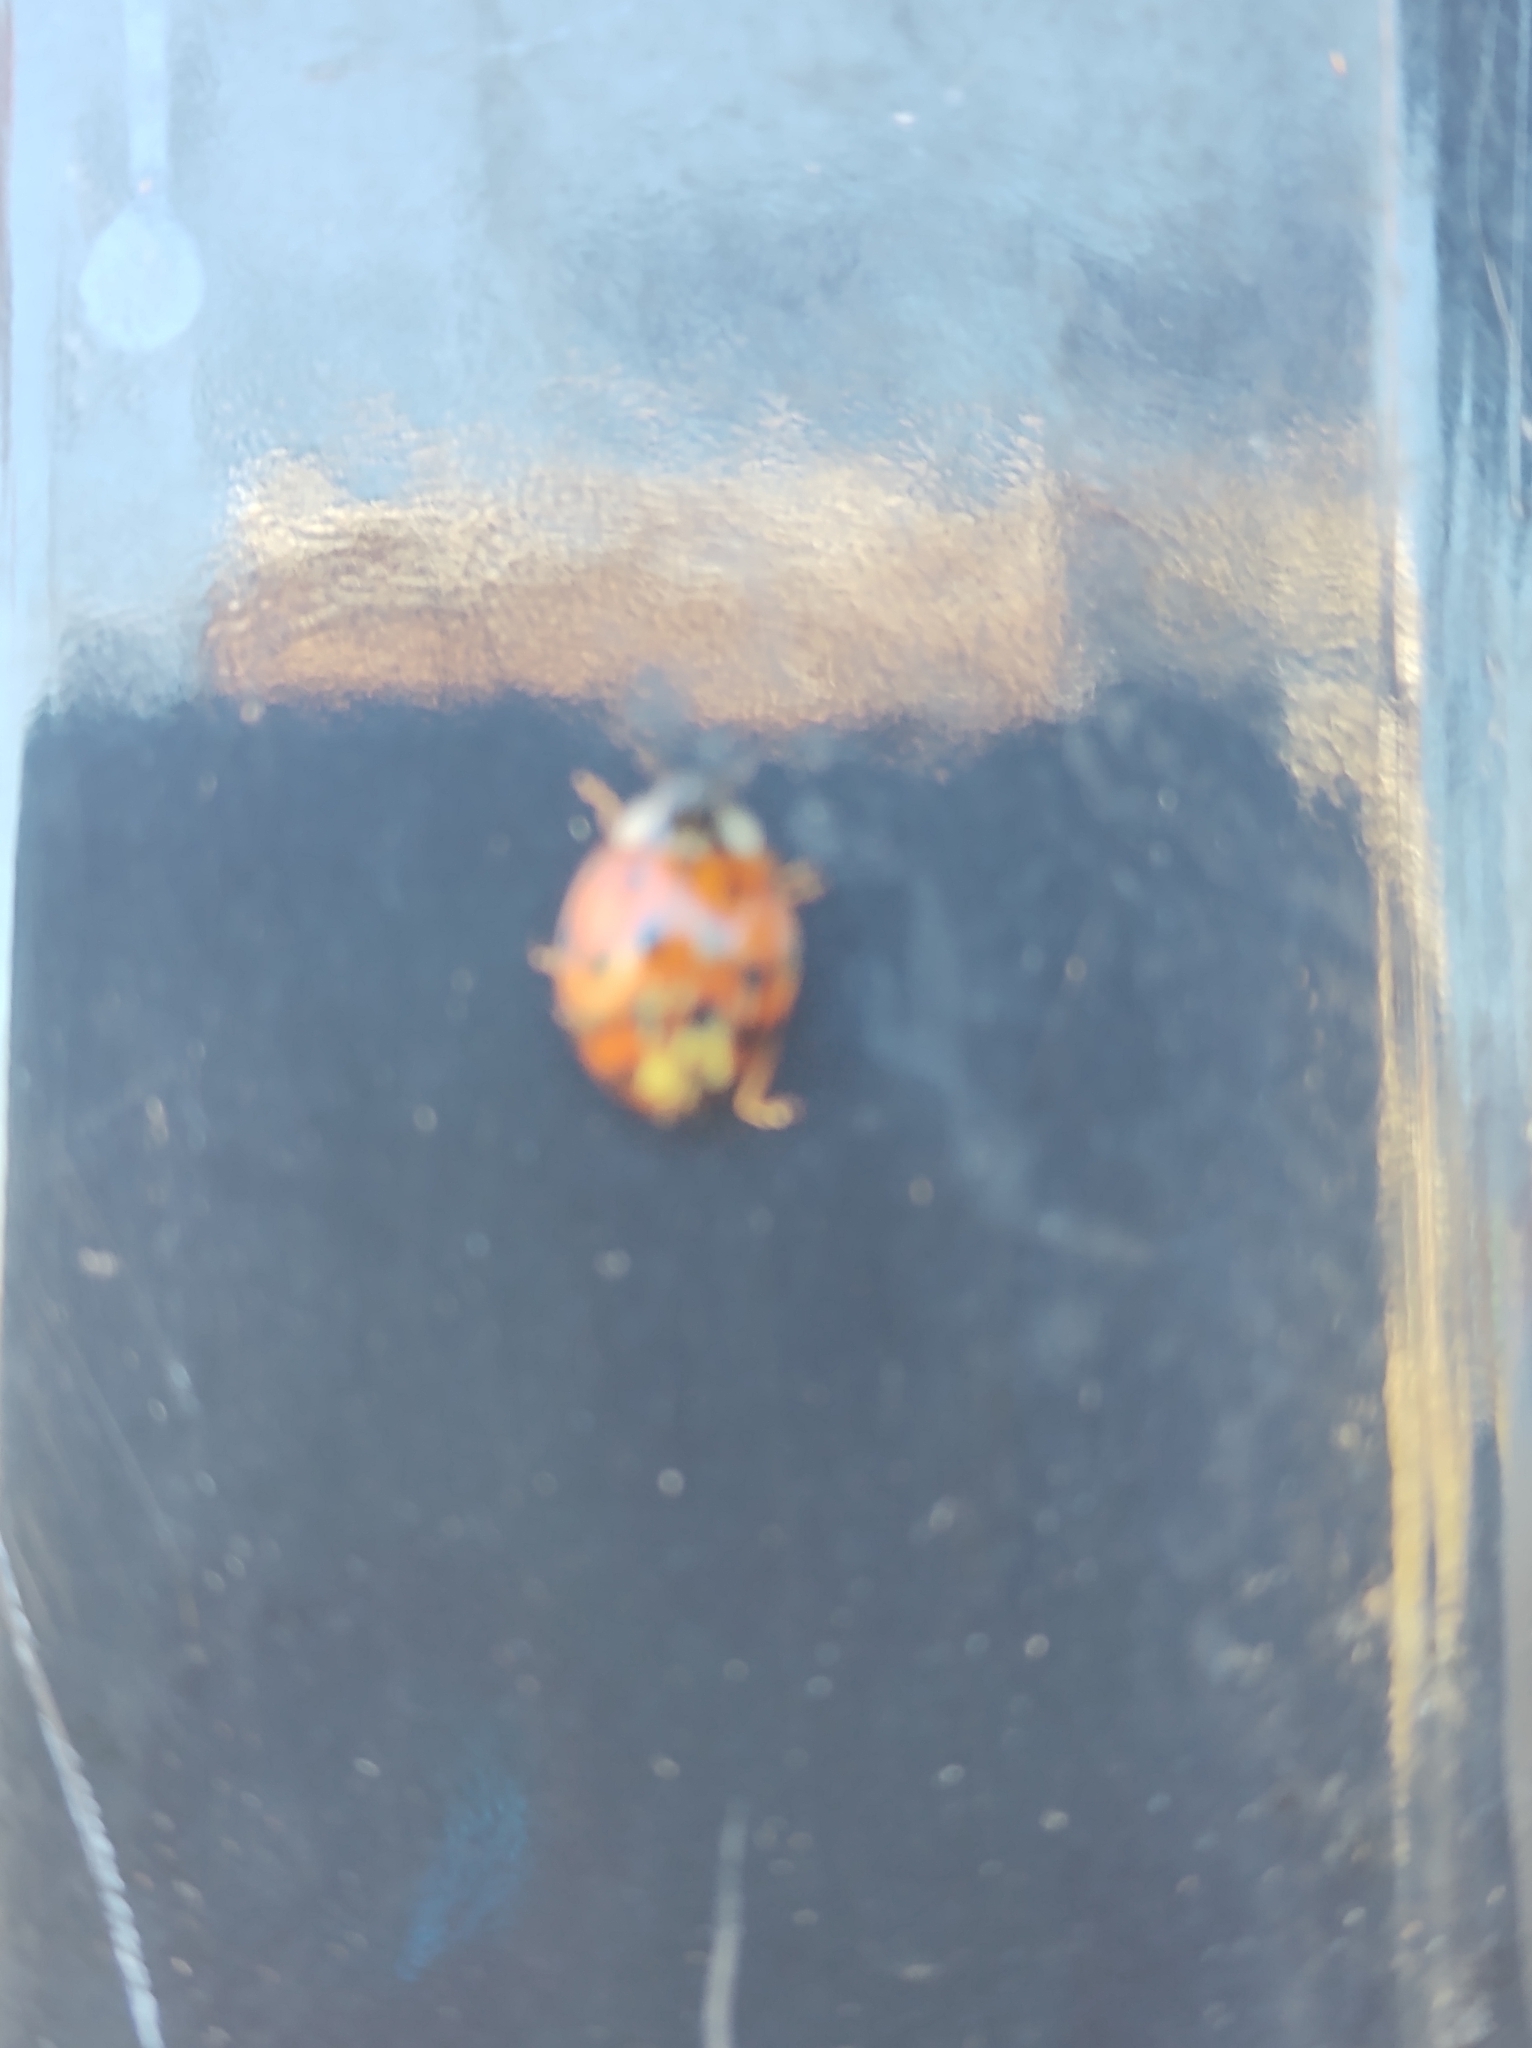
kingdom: Fungi
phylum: Ascomycota
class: Laboulbeniomycetes
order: Laboulbeniales
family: Laboulbeniaceae
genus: Hesperomyces
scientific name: Hesperomyces harmoniae
